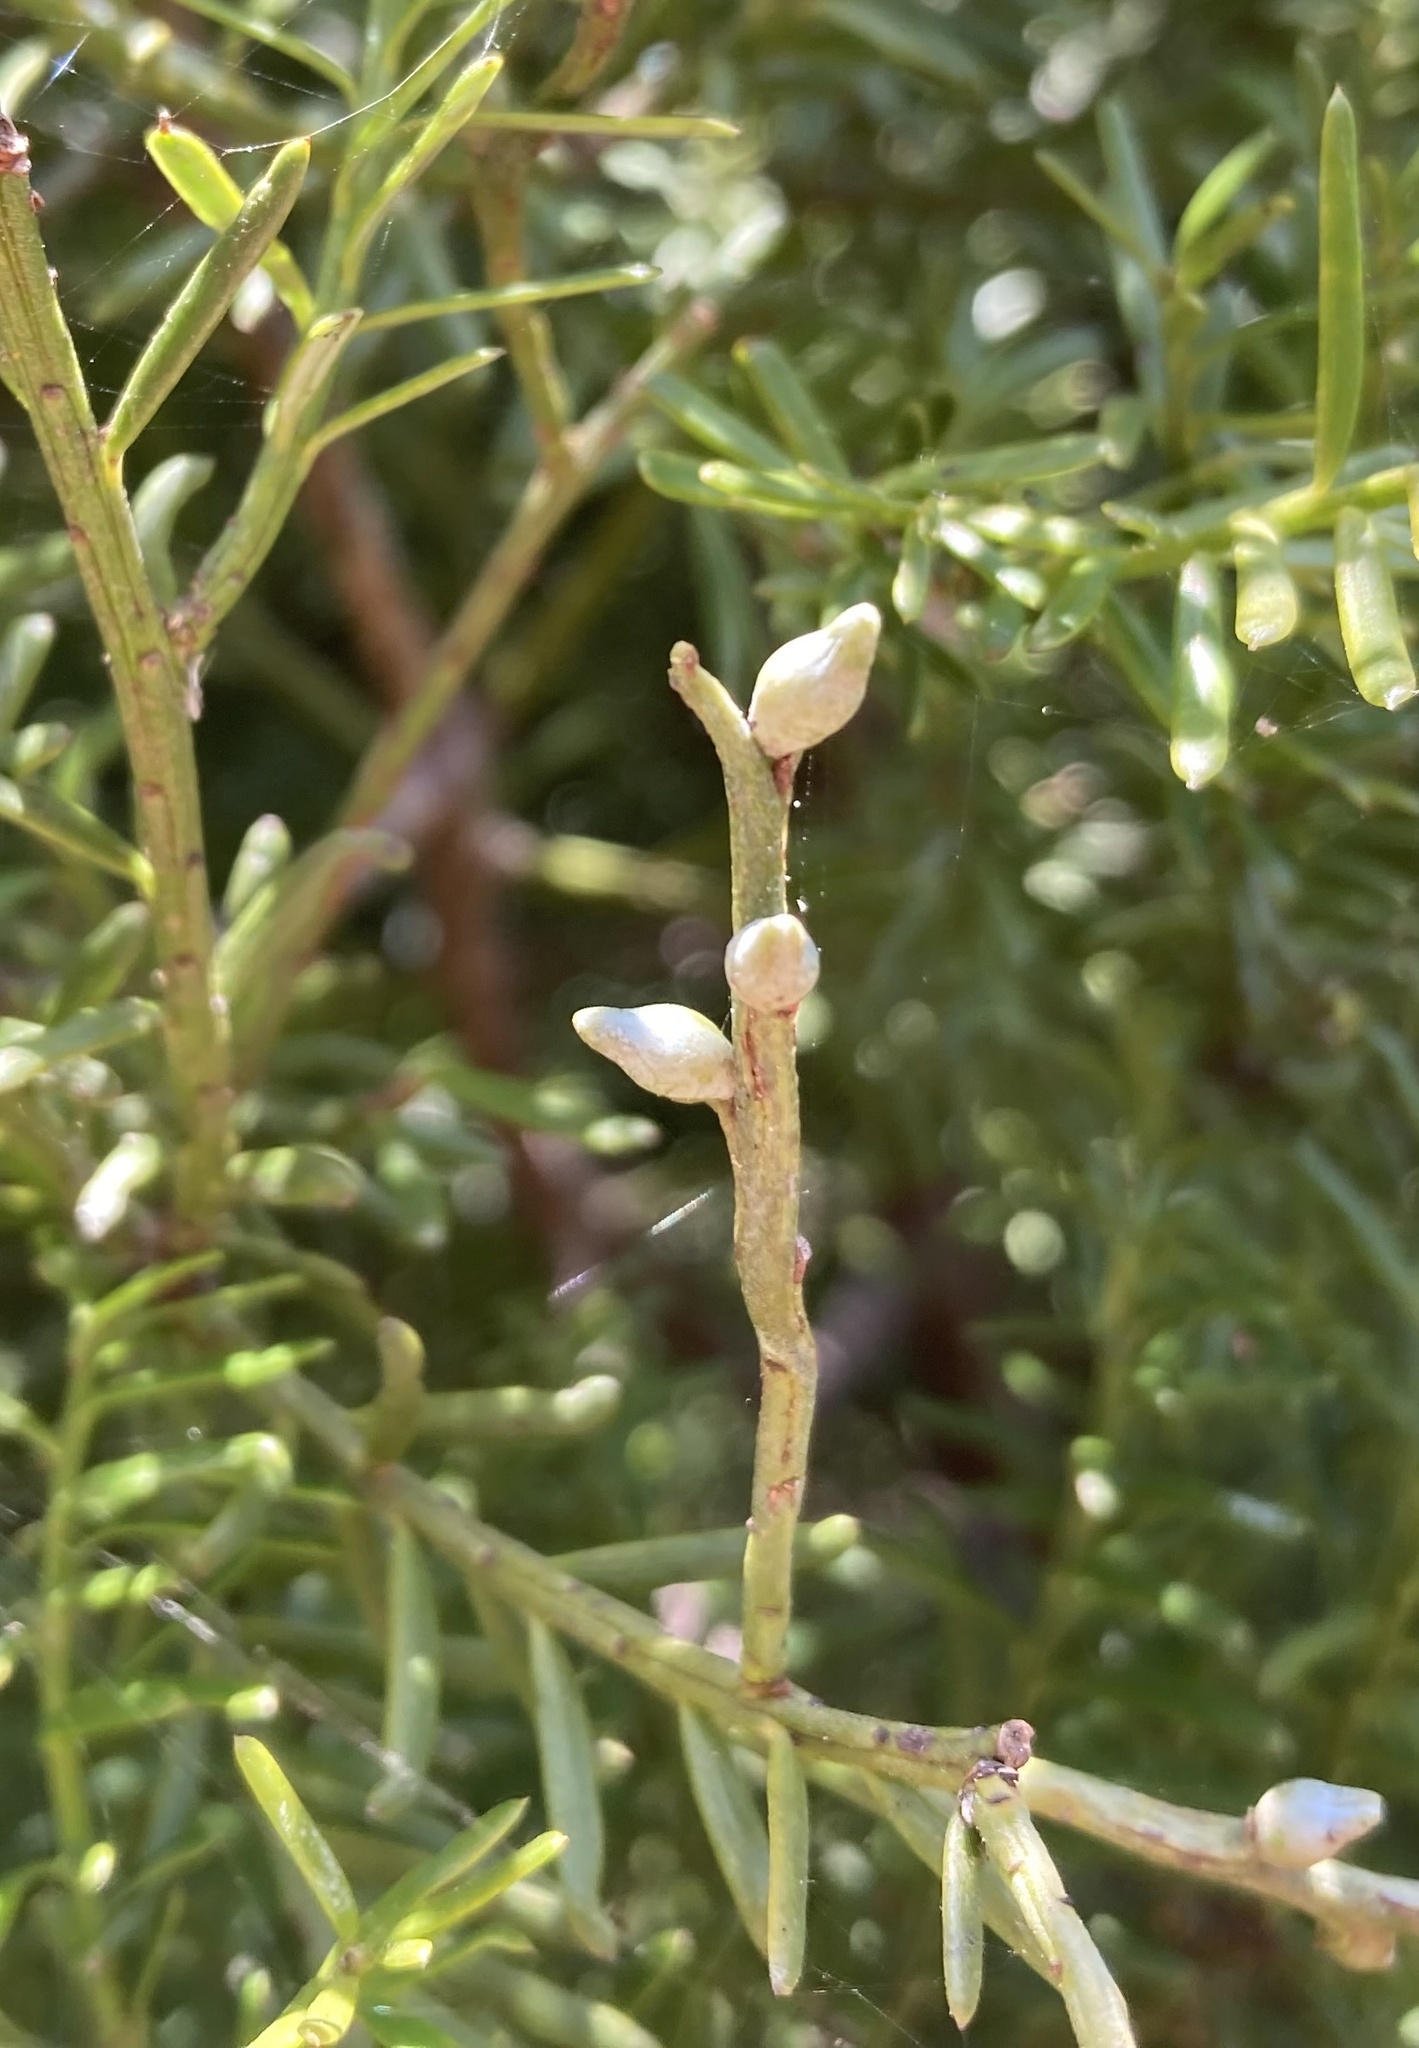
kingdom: Plantae
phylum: Tracheophyta
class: Pinopsida
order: Pinales
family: Podocarpaceae
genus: Prumnopitys
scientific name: Prumnopitys taxifolia
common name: Matai
